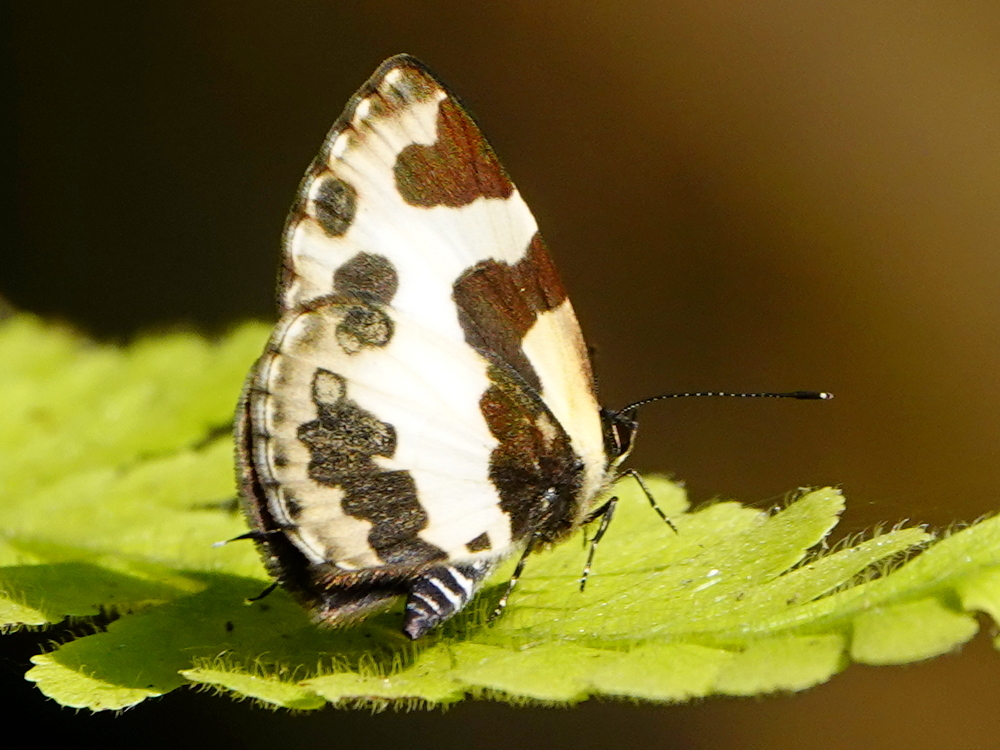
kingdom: Animalia
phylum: Arthropoda
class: Insecta
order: Lepidoptera
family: Lycaenidae
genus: Caleta
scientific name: Caleta elna
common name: Elbowed pierrot
